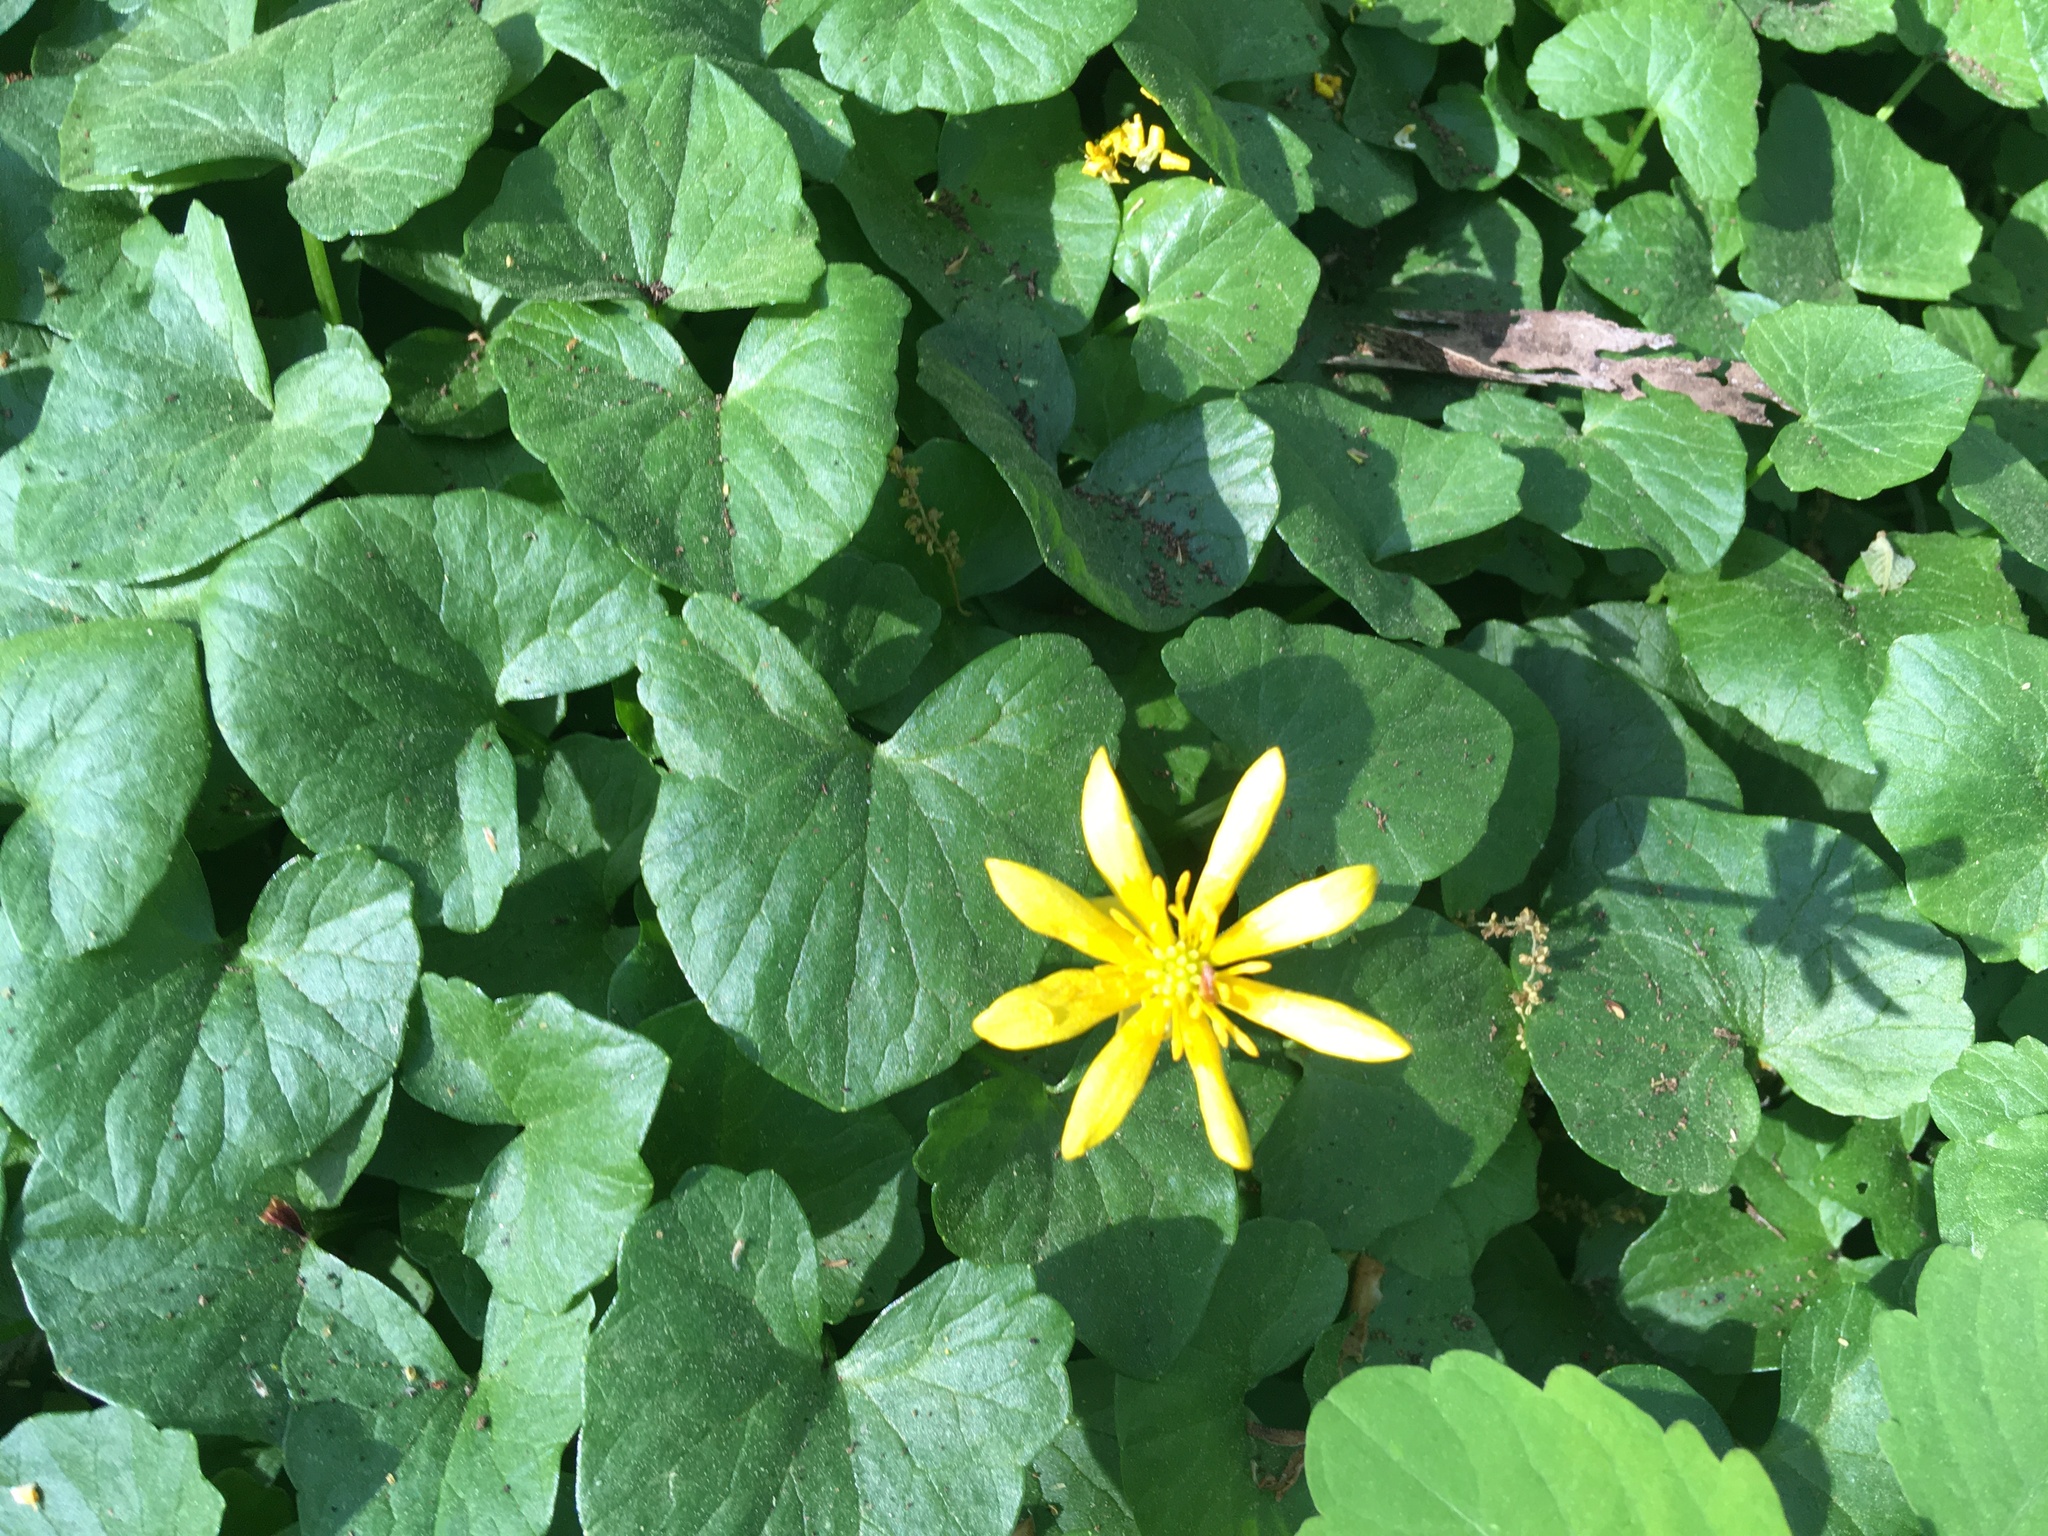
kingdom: Plantae
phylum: Tracheophyta
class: Magnoliopsida
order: Ranunculales
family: Ranunculaceae
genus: Ficaria
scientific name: Ficaria verna
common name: Lesser celandine
